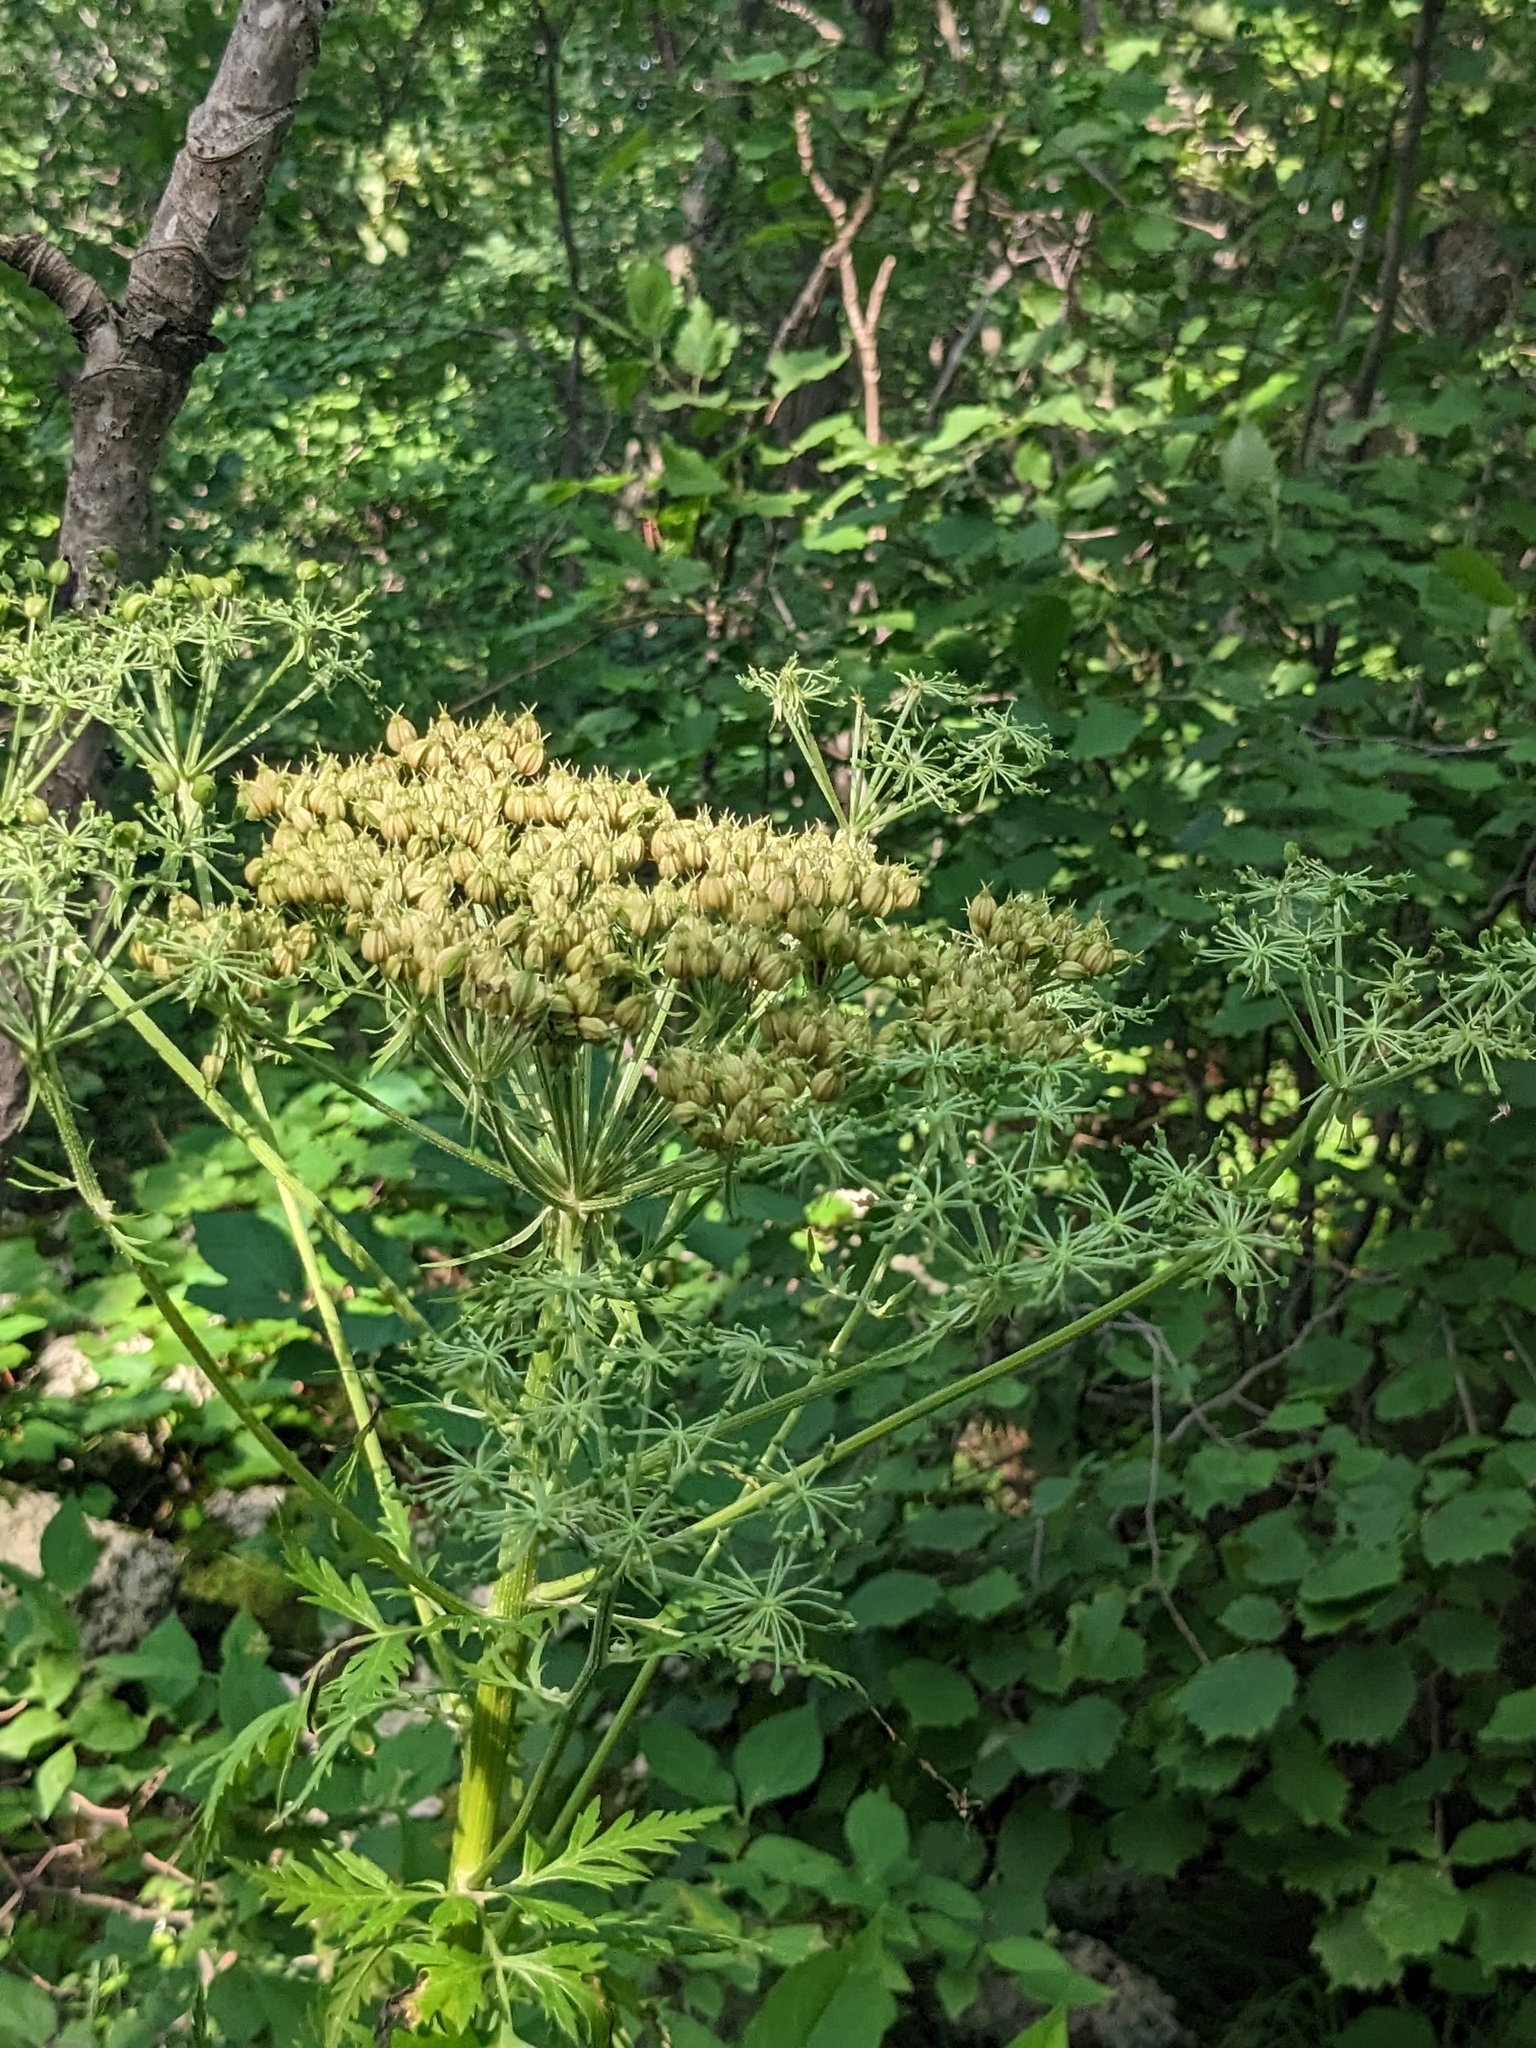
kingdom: Plantae
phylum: Tracheophyta
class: Magnoliopsida
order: Apiales
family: Apiaceae
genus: Pleurospermum
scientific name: Pleurospermum uralense
